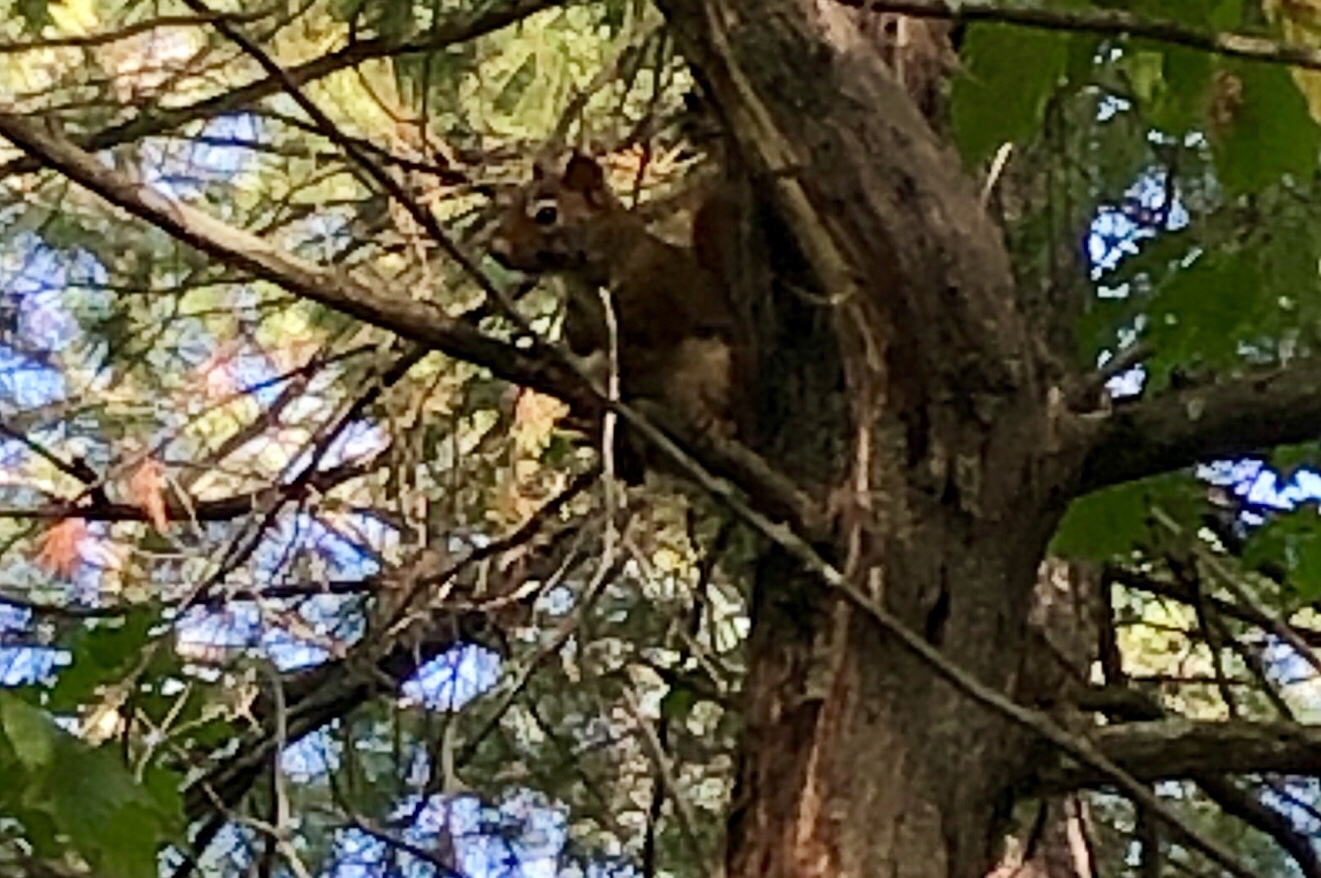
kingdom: Animalia
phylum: Chordata
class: Mammalia
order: Rodentia
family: Sciuridae
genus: Tamiasciurus
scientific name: Tamiasciurus hudsonicus
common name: Red squirrel
